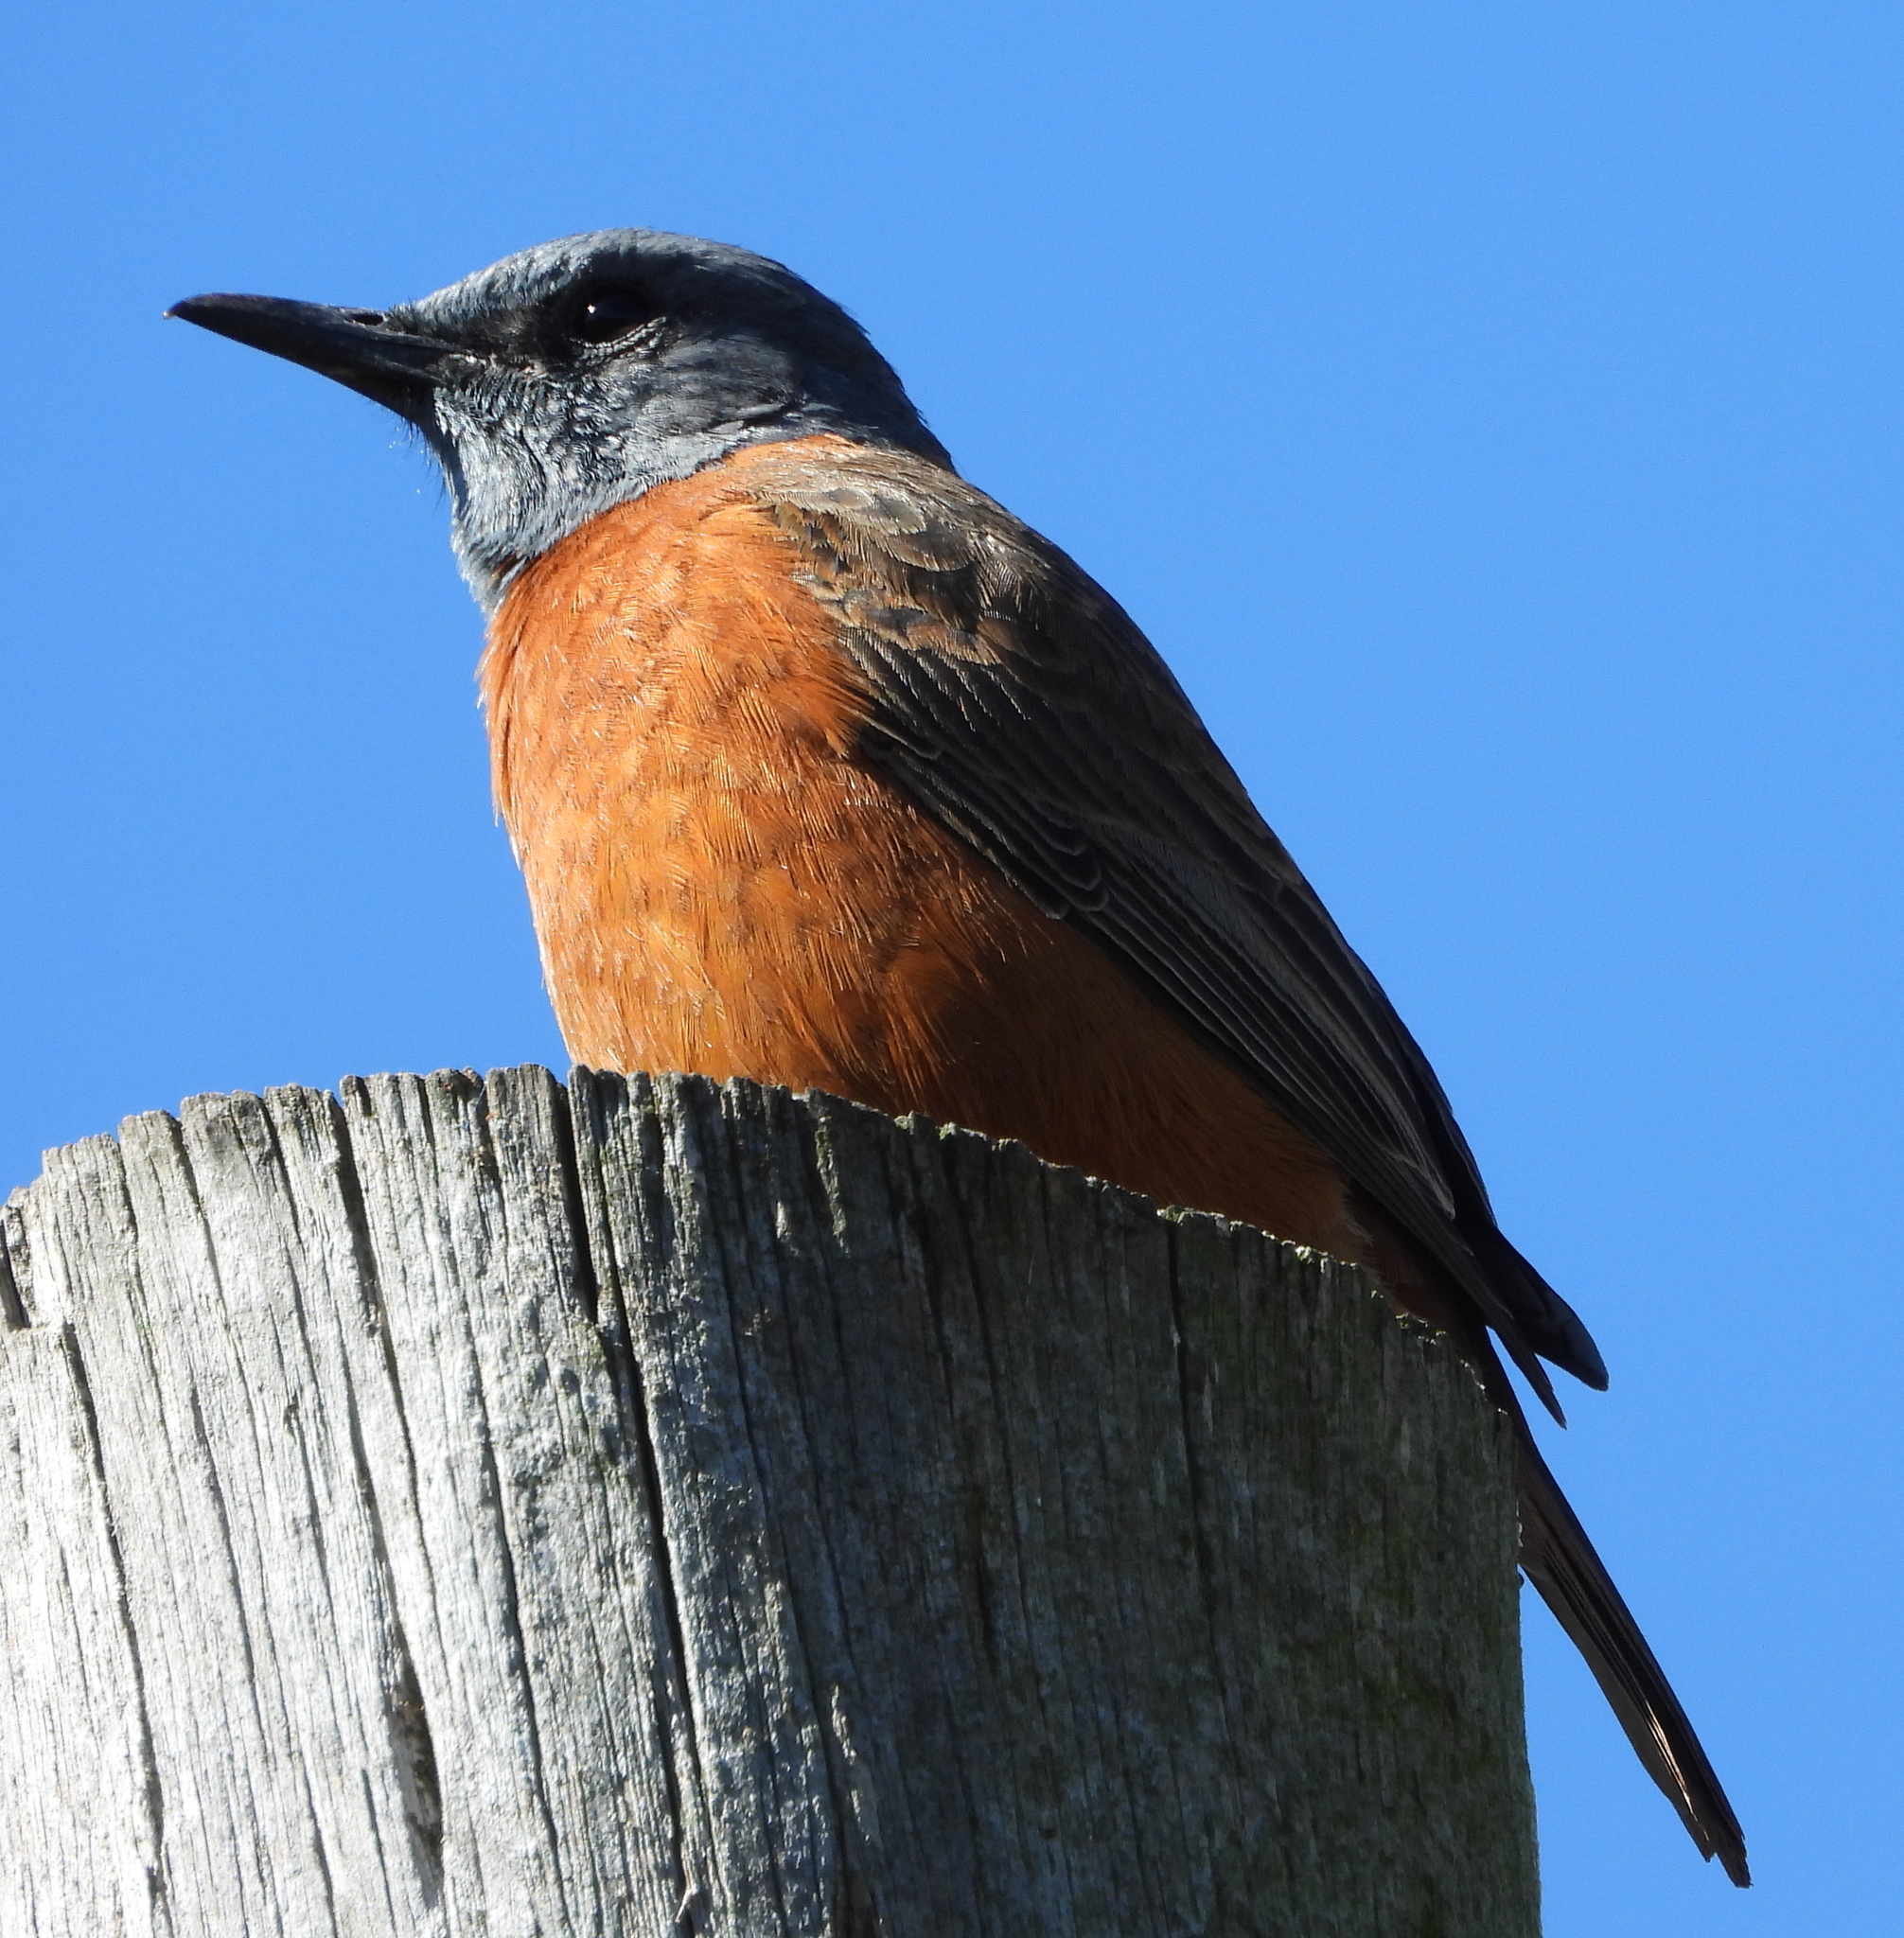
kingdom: Animalia
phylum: Chordata
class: Aves
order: Passeriformes
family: Muscicapidae
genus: Monticola
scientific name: Monticola rupestris
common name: Cape rock thrush
